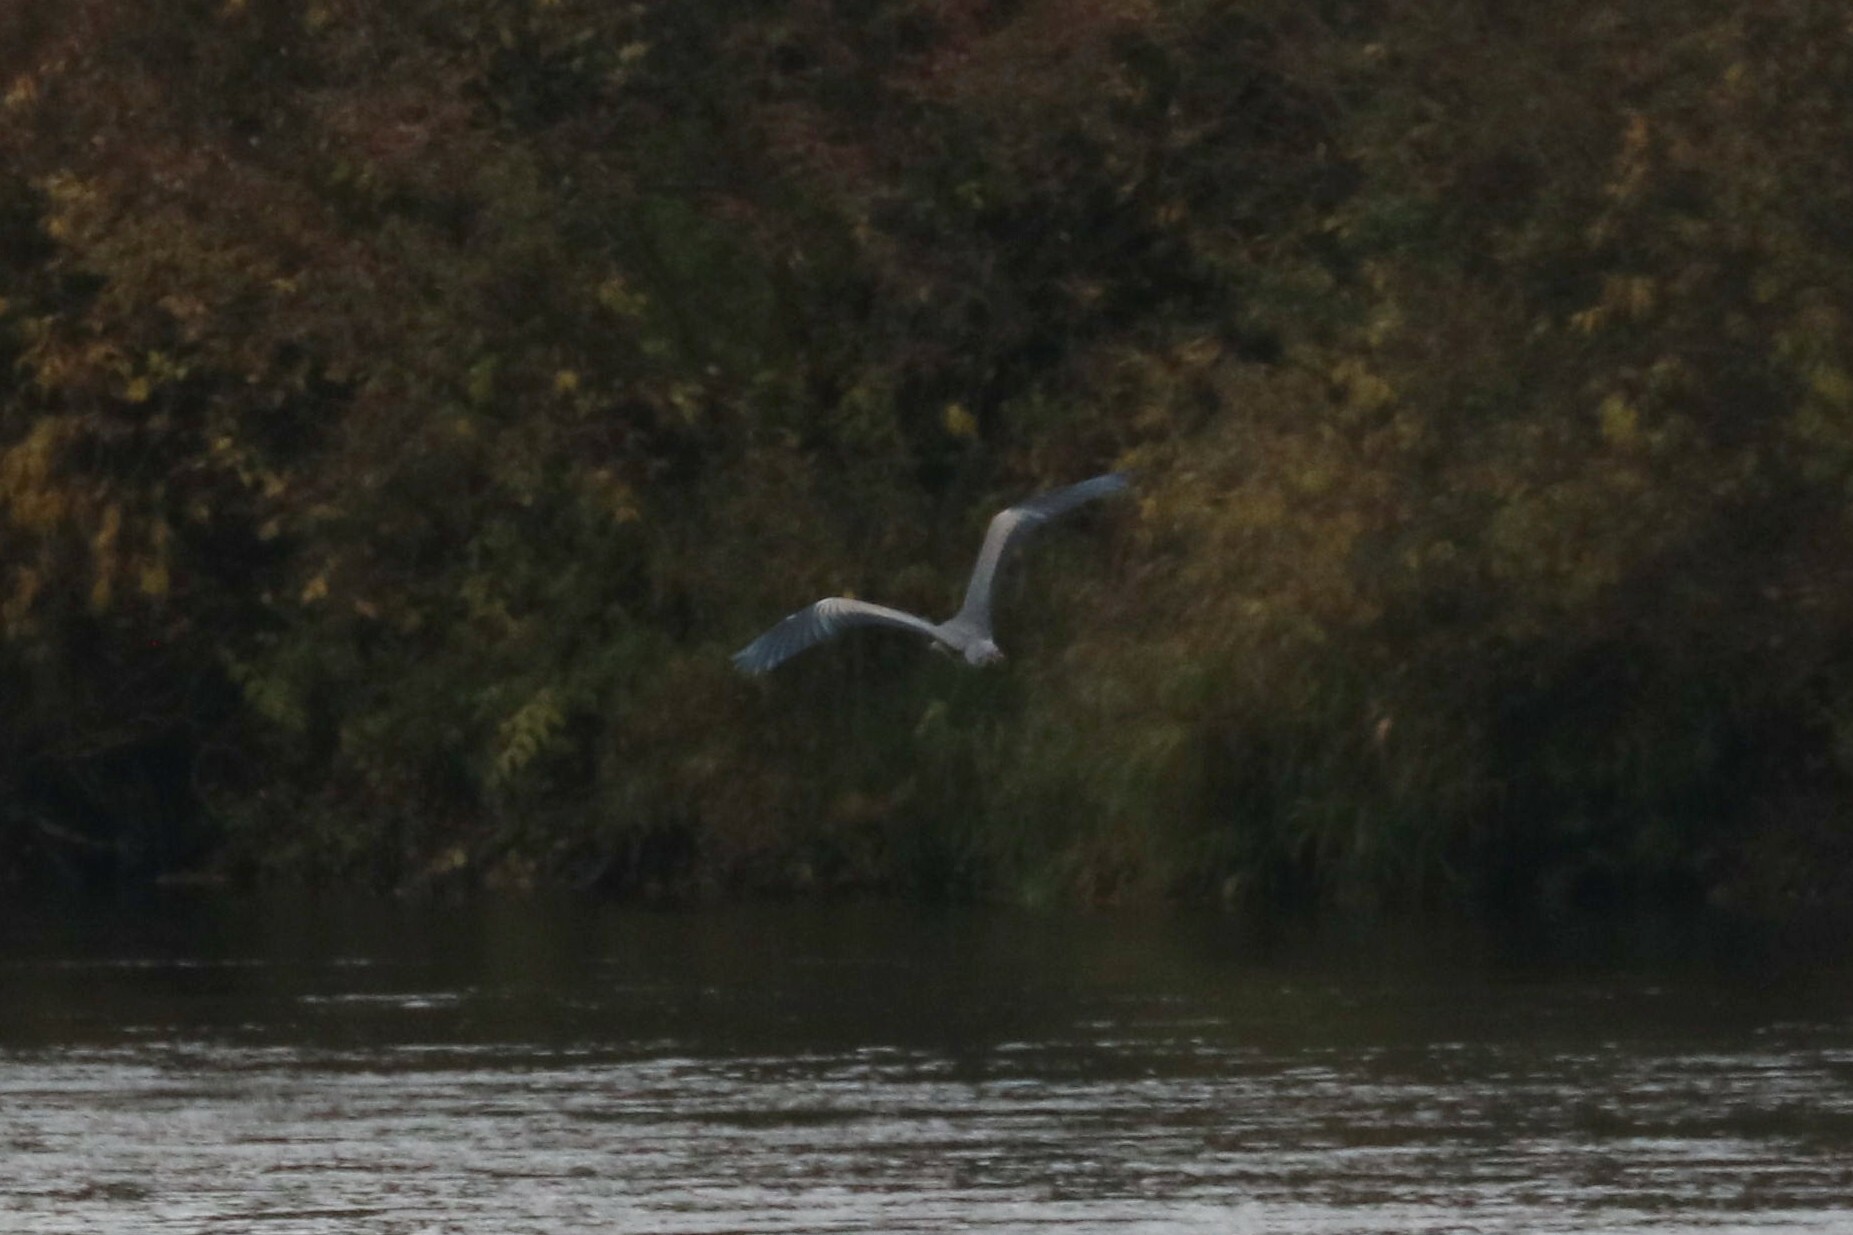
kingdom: Animalia
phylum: Chordata
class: Aves
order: Pelecaniformes
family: Ardeidae
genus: Ardea
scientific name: Ardea cinerea
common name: Grey heron
